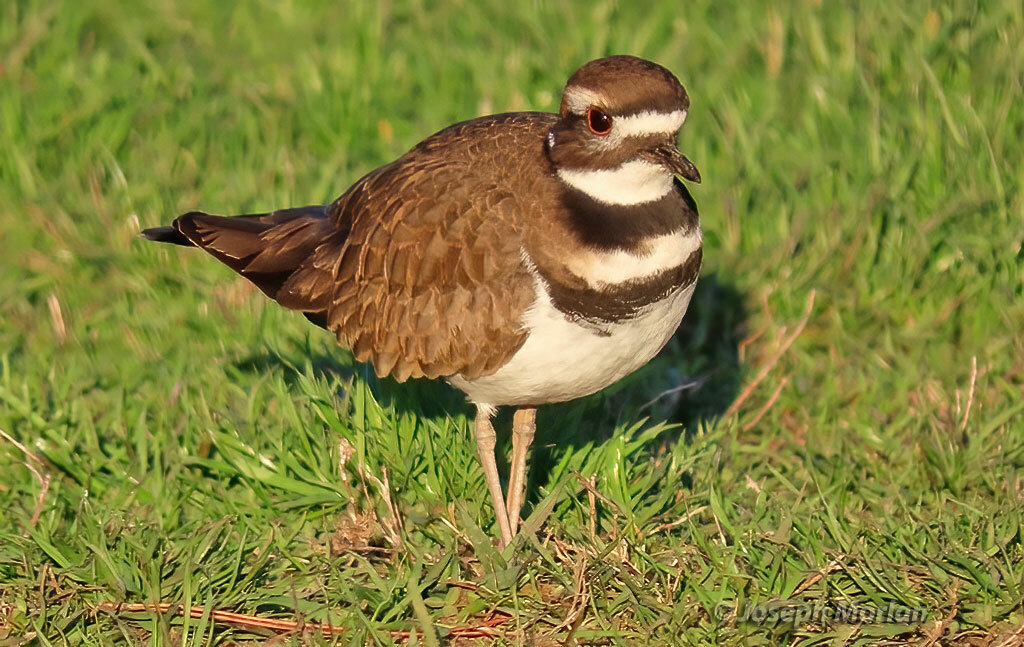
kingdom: Animalia
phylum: Chordata
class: Aves
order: Charadriiformes
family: Charadriidae
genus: Charadrius
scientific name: Charadrius vociferus
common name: Killdeer
